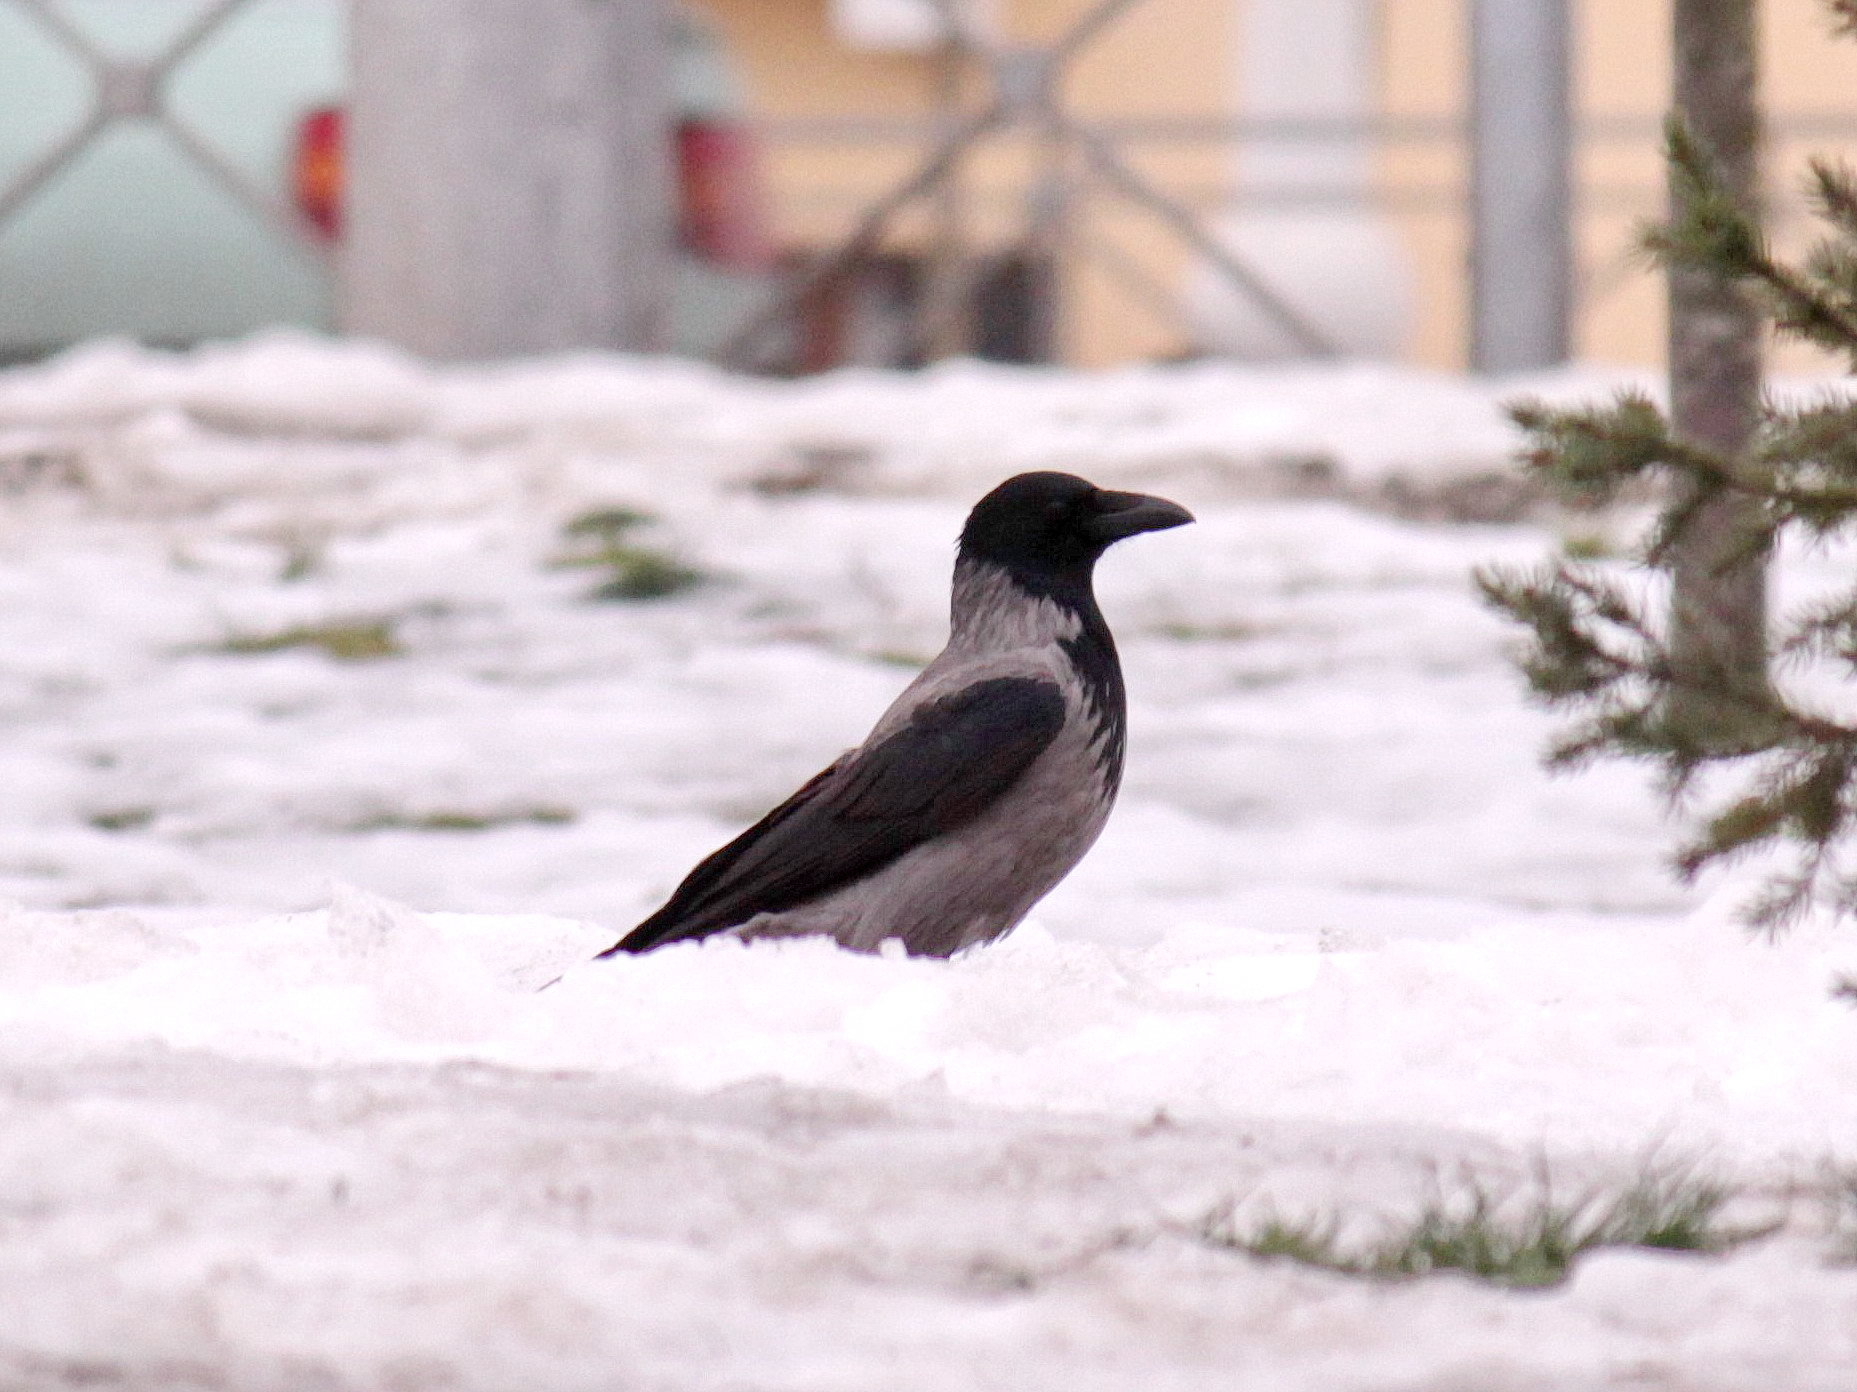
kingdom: Animalia
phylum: Chordata
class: Aves
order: Passeriformes
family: Corvidae
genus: Corvus
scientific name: Corvus cornix
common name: Hooded crow
